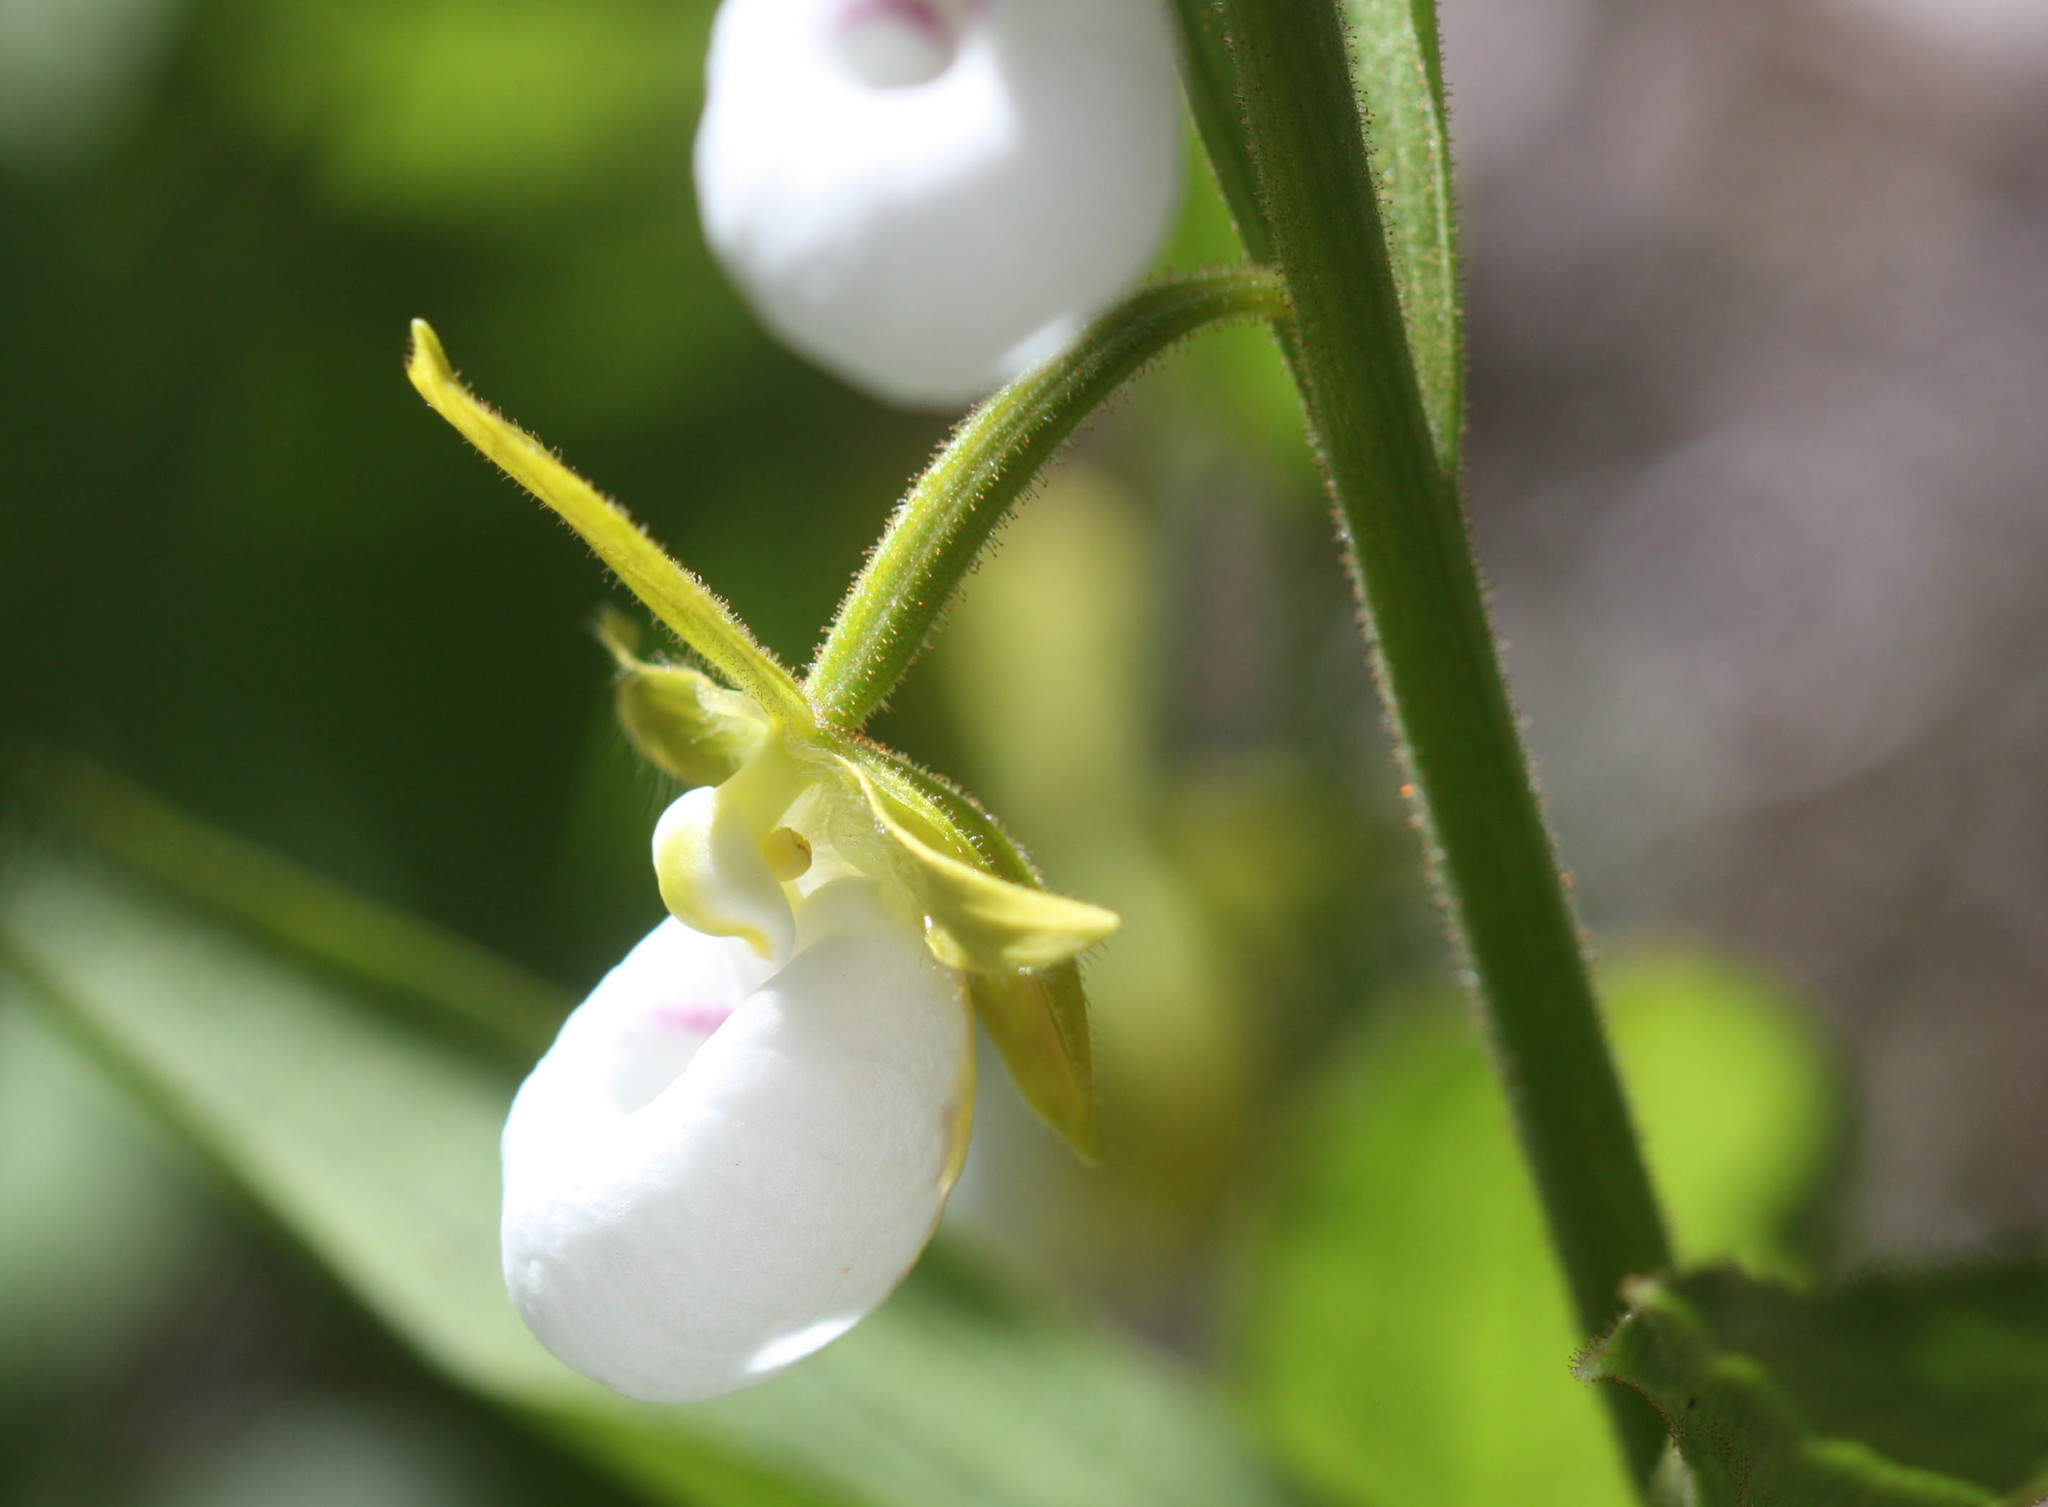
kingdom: Plantae
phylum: Tracheophyta
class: Liliopsida
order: Asparagales
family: Orchidaceae
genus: Cypripedium
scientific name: Cypripedium californicum
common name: California lady's slipper
